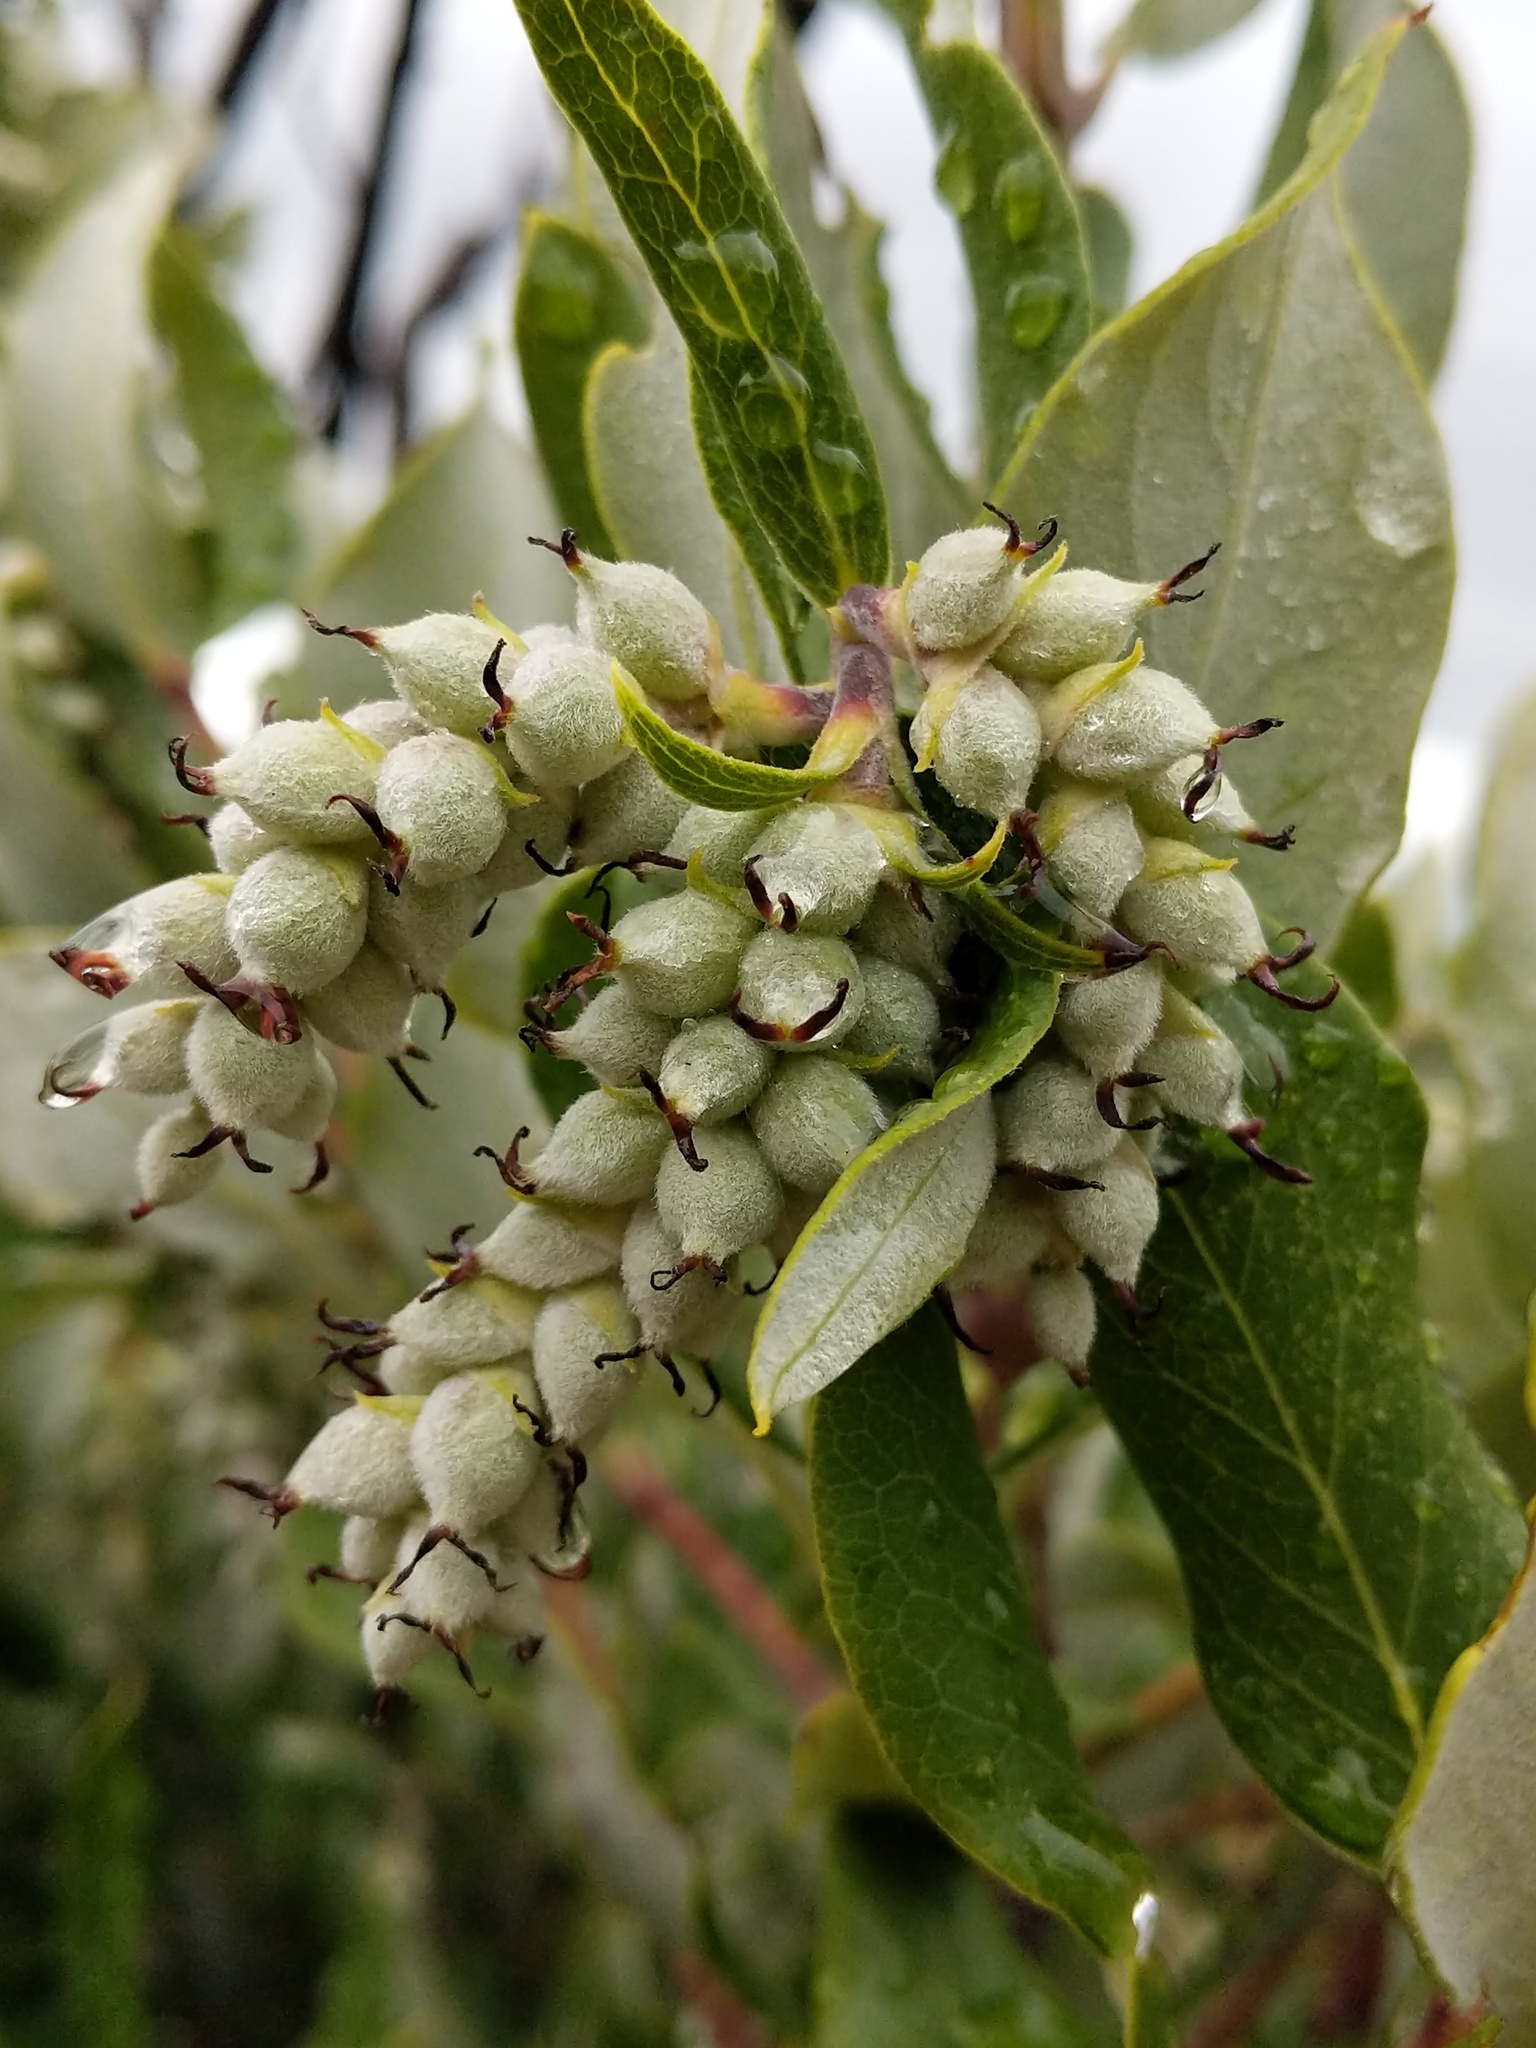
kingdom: Plantae
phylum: Tracheophyta
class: Magnoliopsida
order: Garryales
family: Garryaceae
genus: Garrya
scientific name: Garrya veatchii
